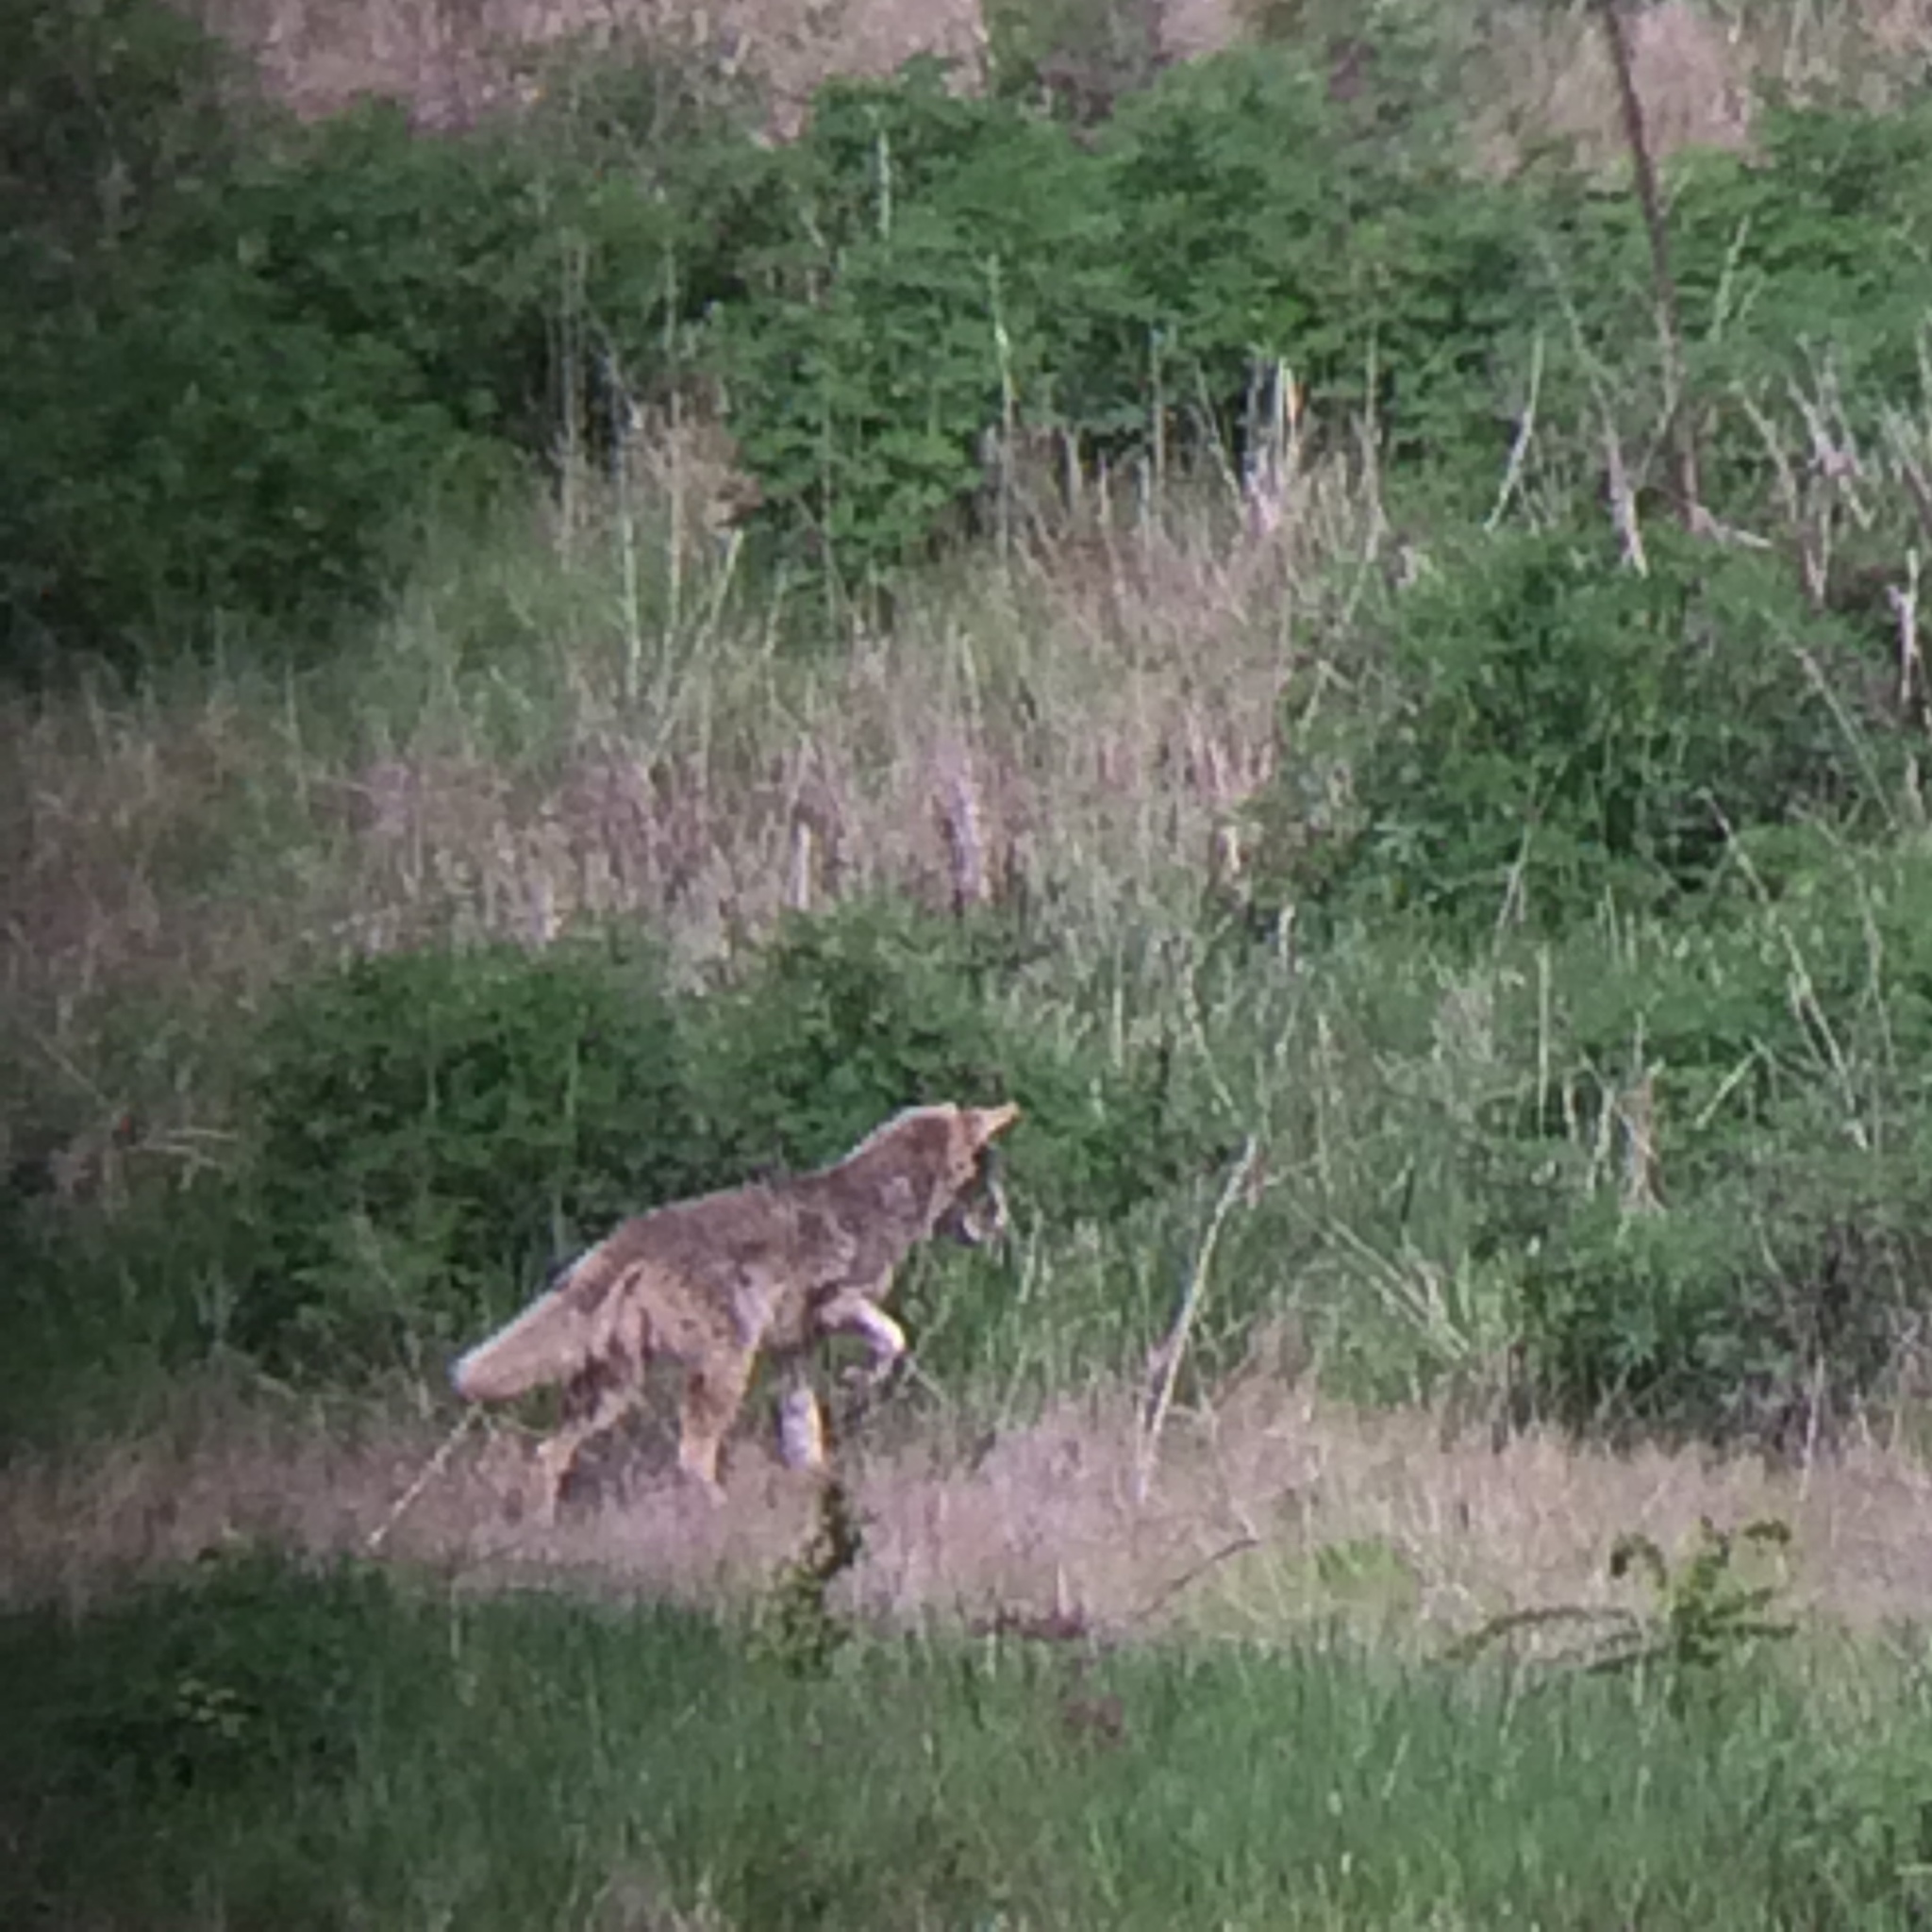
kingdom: Animalia
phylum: Chordata
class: Mammalia
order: Carnivora
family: Canidae
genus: Canis
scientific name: Canis latrans
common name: Coyote
